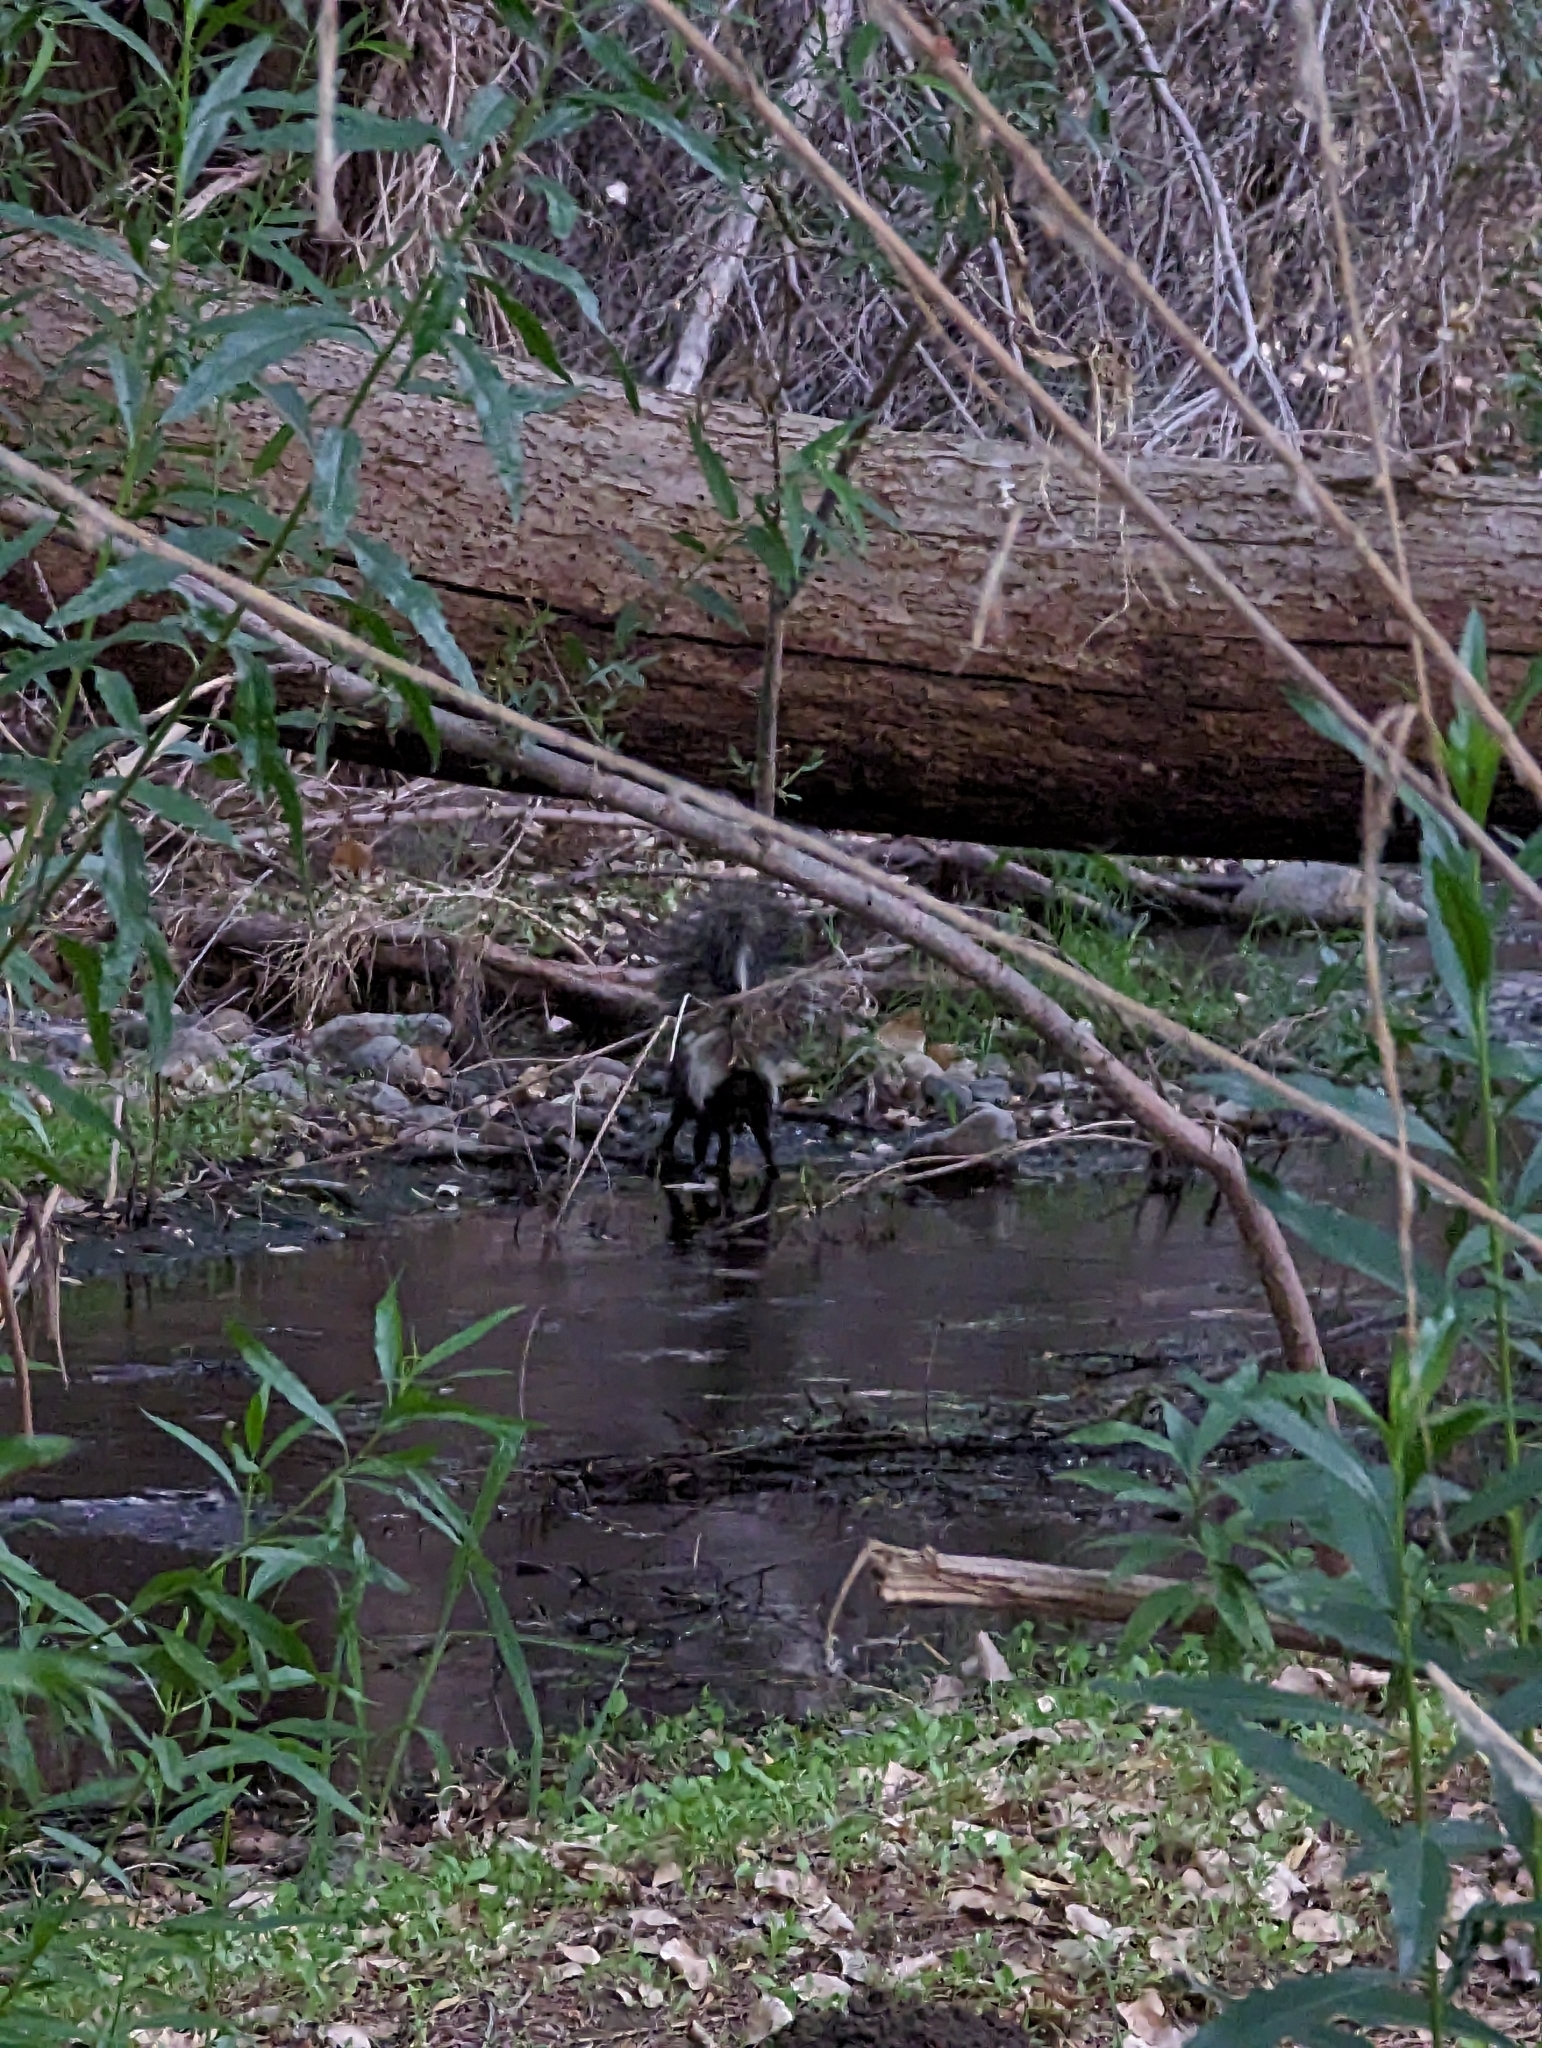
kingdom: Animalia
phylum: Chordata
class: Mammalia
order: Carnivora
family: Mephitidae
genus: Mephitis
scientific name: Mephitis mephitis
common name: Striped skunk
